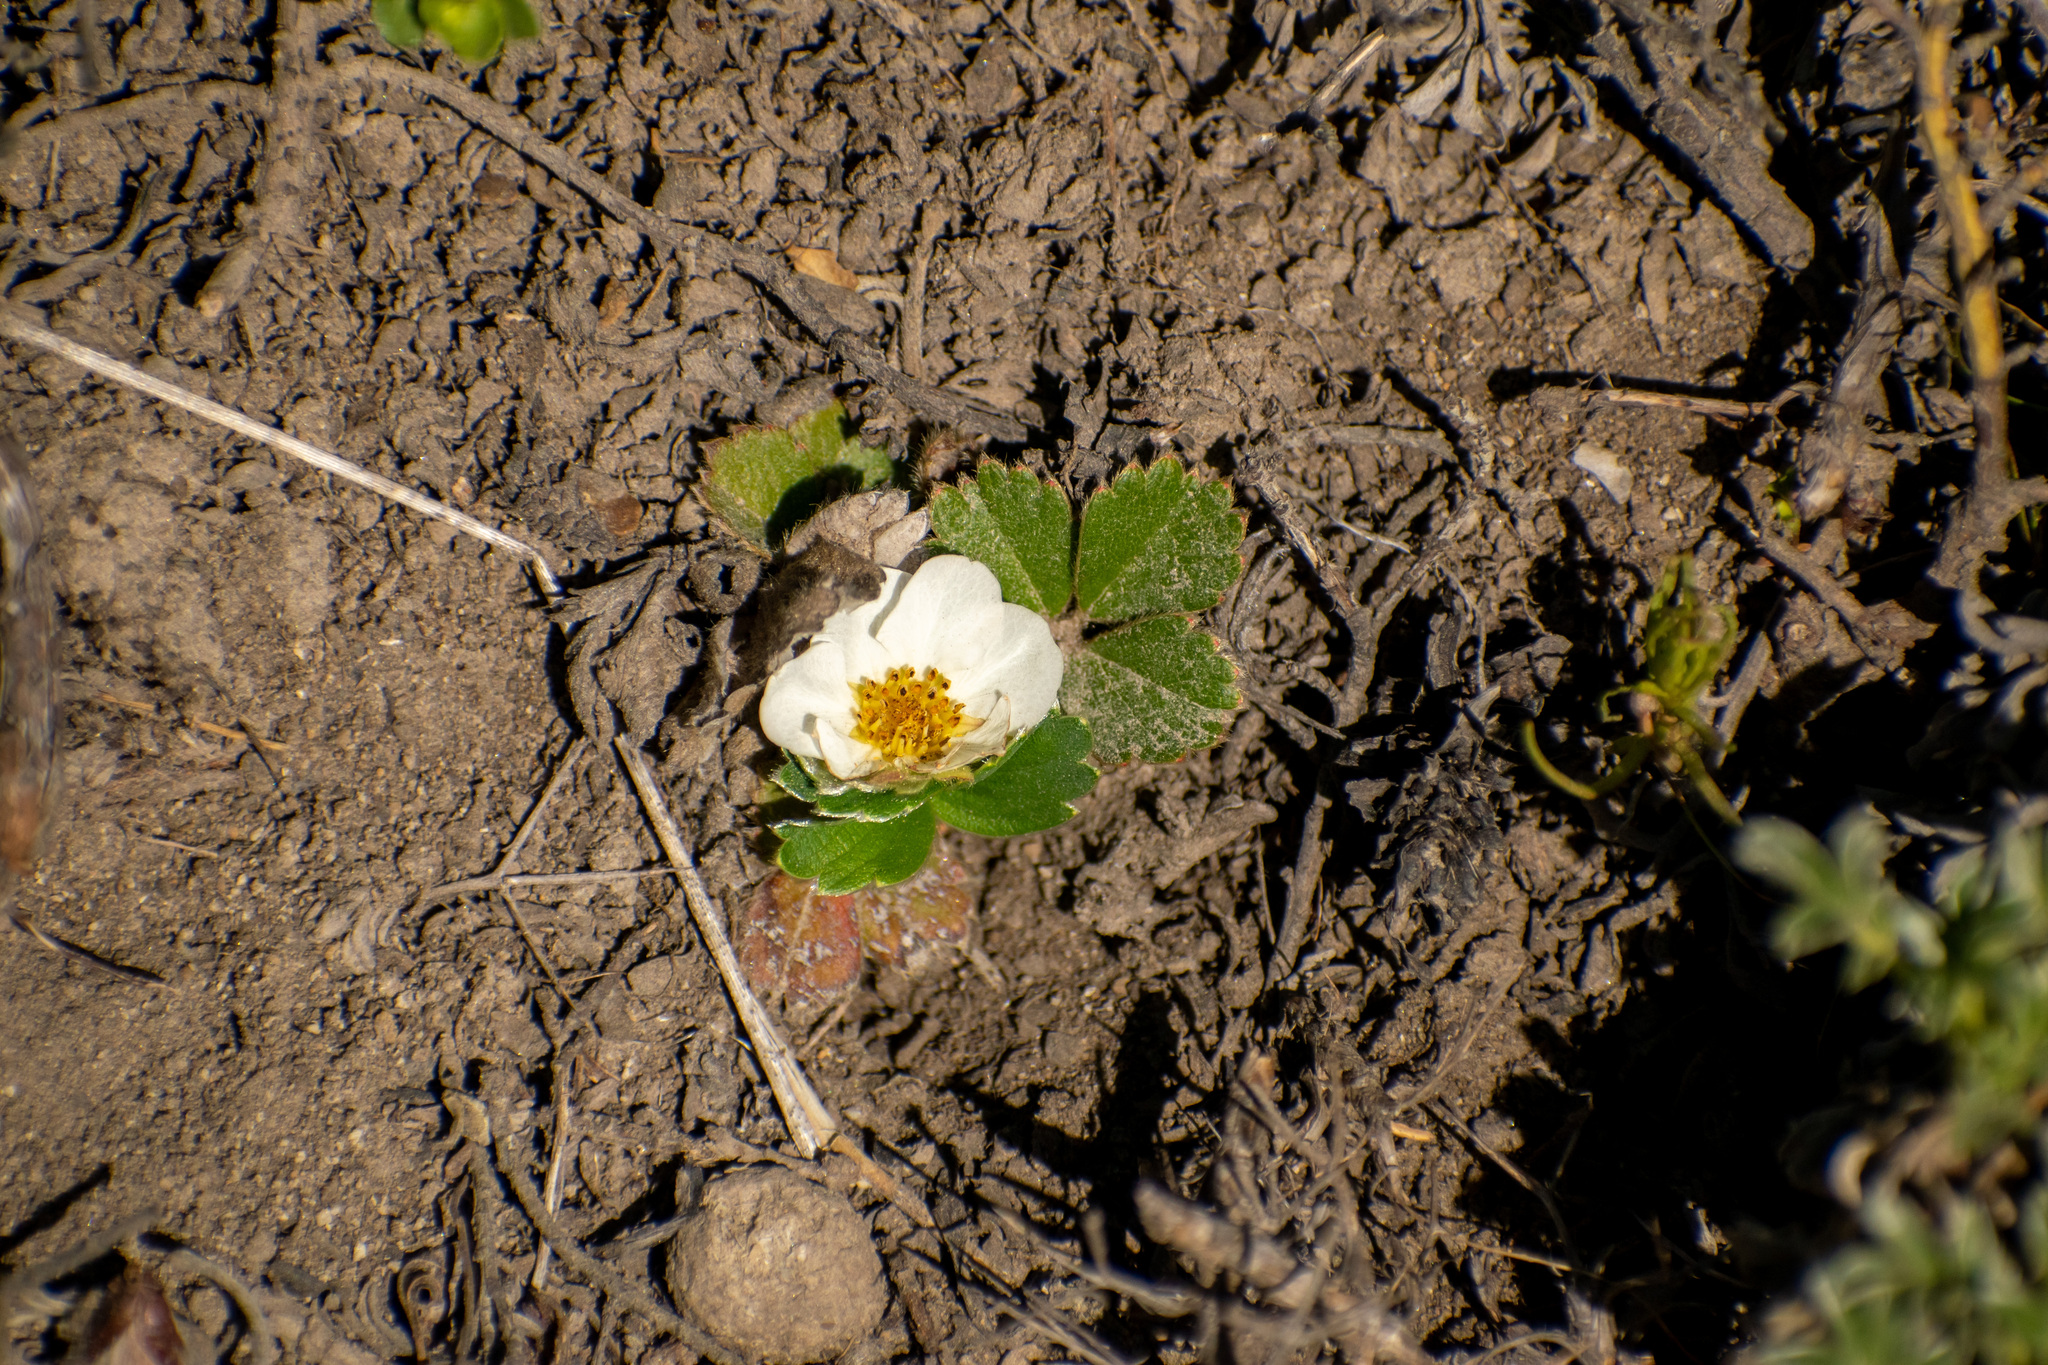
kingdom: Plantae
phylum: Tracheophyta
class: Magnoliopsida
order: Rosales
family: Rosaceae
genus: Fragaria
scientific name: Fragaria chiloensis
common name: Beach strawberry
